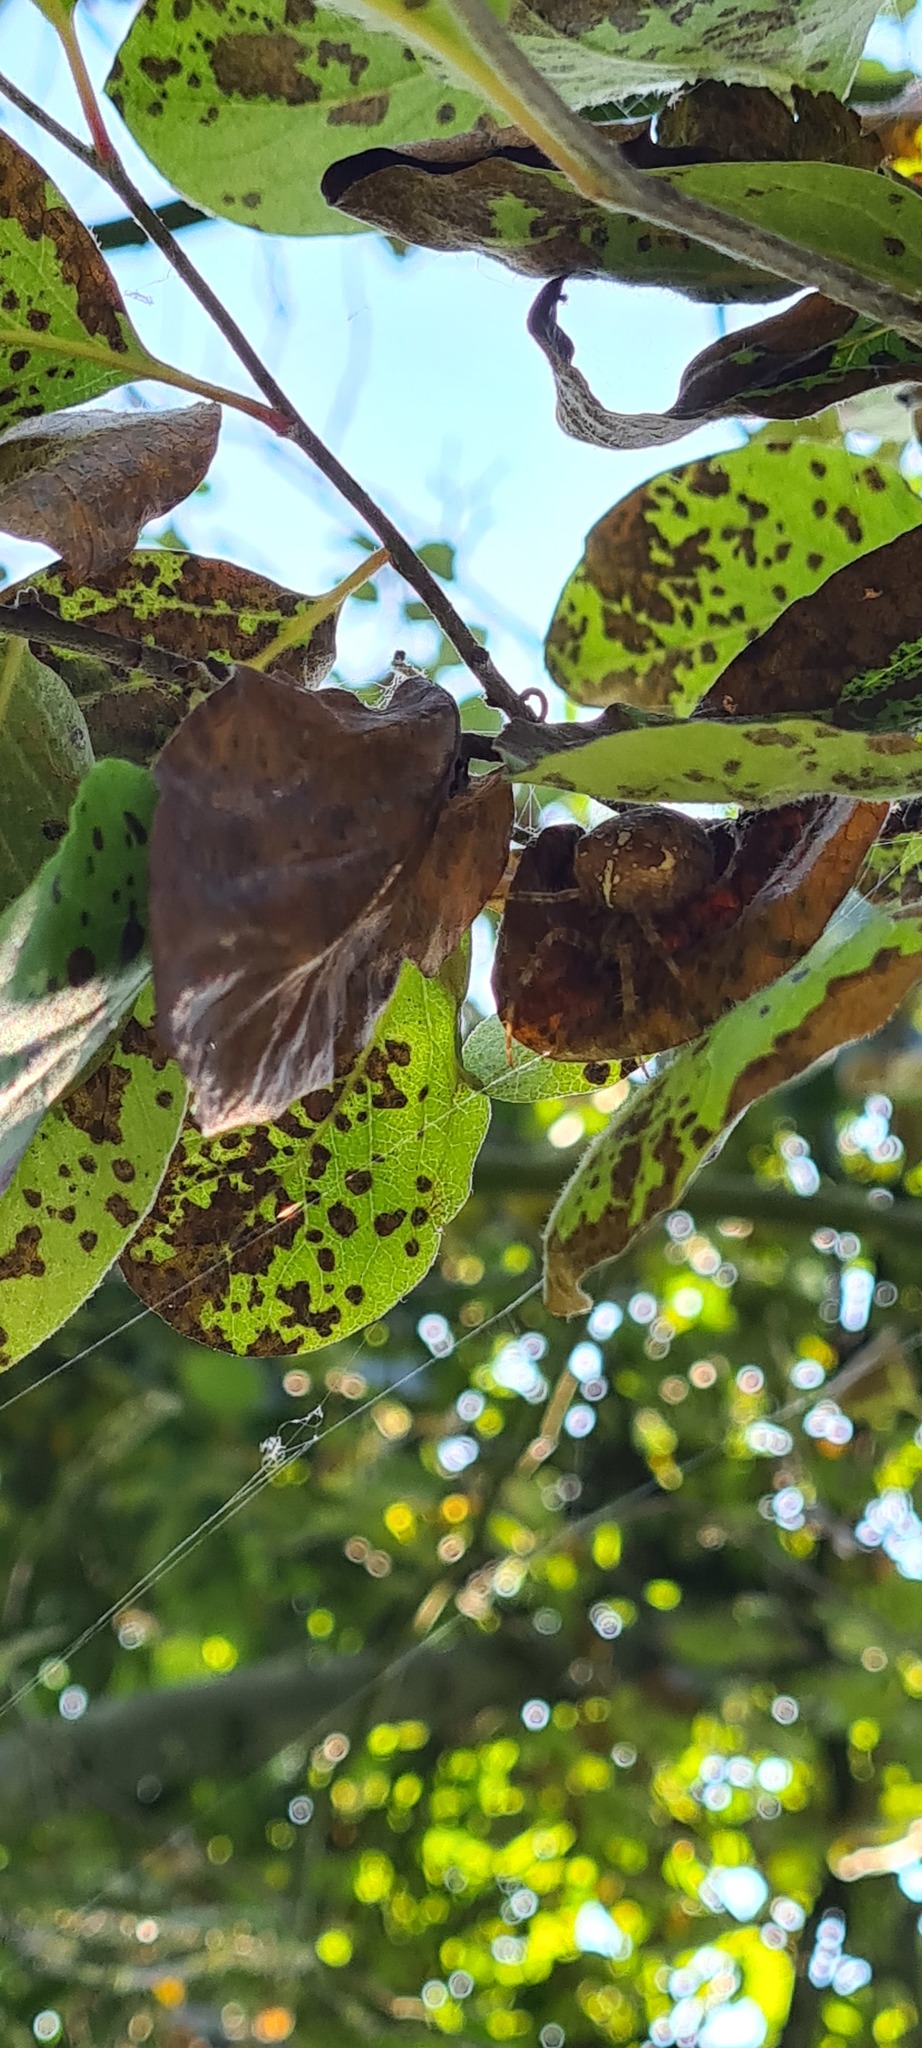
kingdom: Animalia
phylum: Arthropoda
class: Arachnida
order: Araneae
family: Araneidae
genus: Araneus
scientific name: Araneus diadematus
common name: Cross orbweaver
